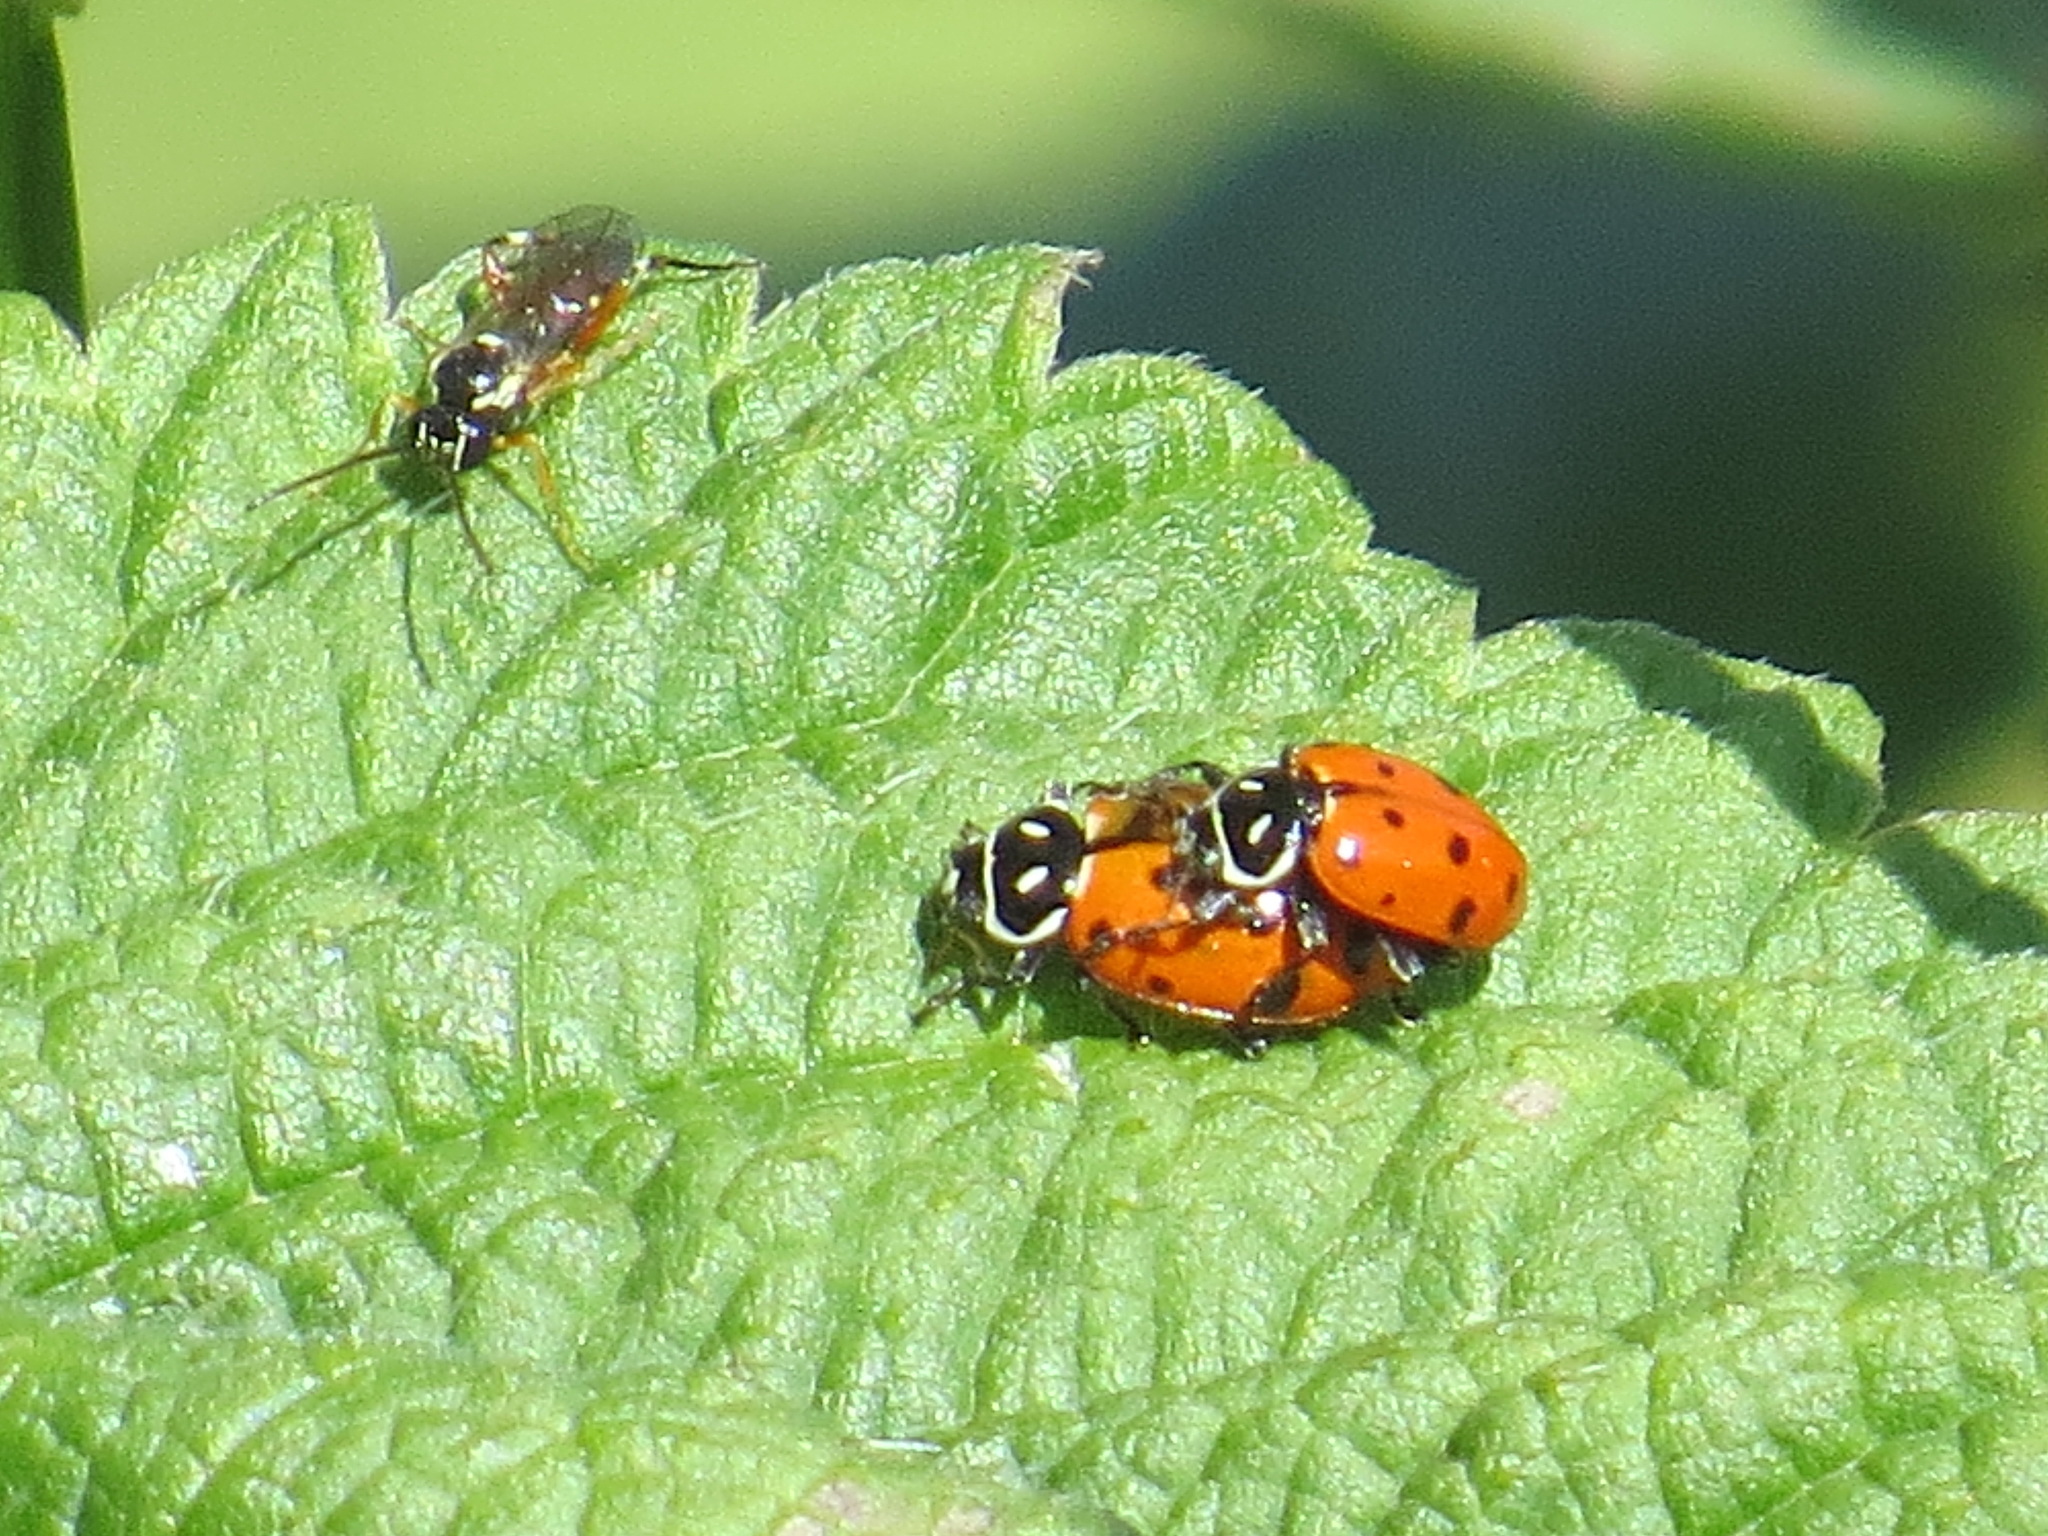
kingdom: Animalia
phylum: Arthropoda
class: Insecta
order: Coleoptera
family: Coccinellidae
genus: Hippodamia
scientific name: Hippodamia convergens
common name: Convergent lady beetle
